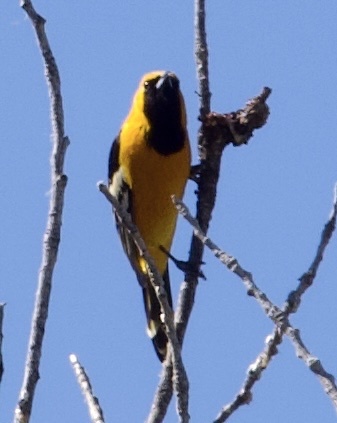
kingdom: Animalia
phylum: Chordata
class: Aves
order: Passeriformes
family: Icteridae
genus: Icterus
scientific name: Icterus cucullatus
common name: Hooded oriole
